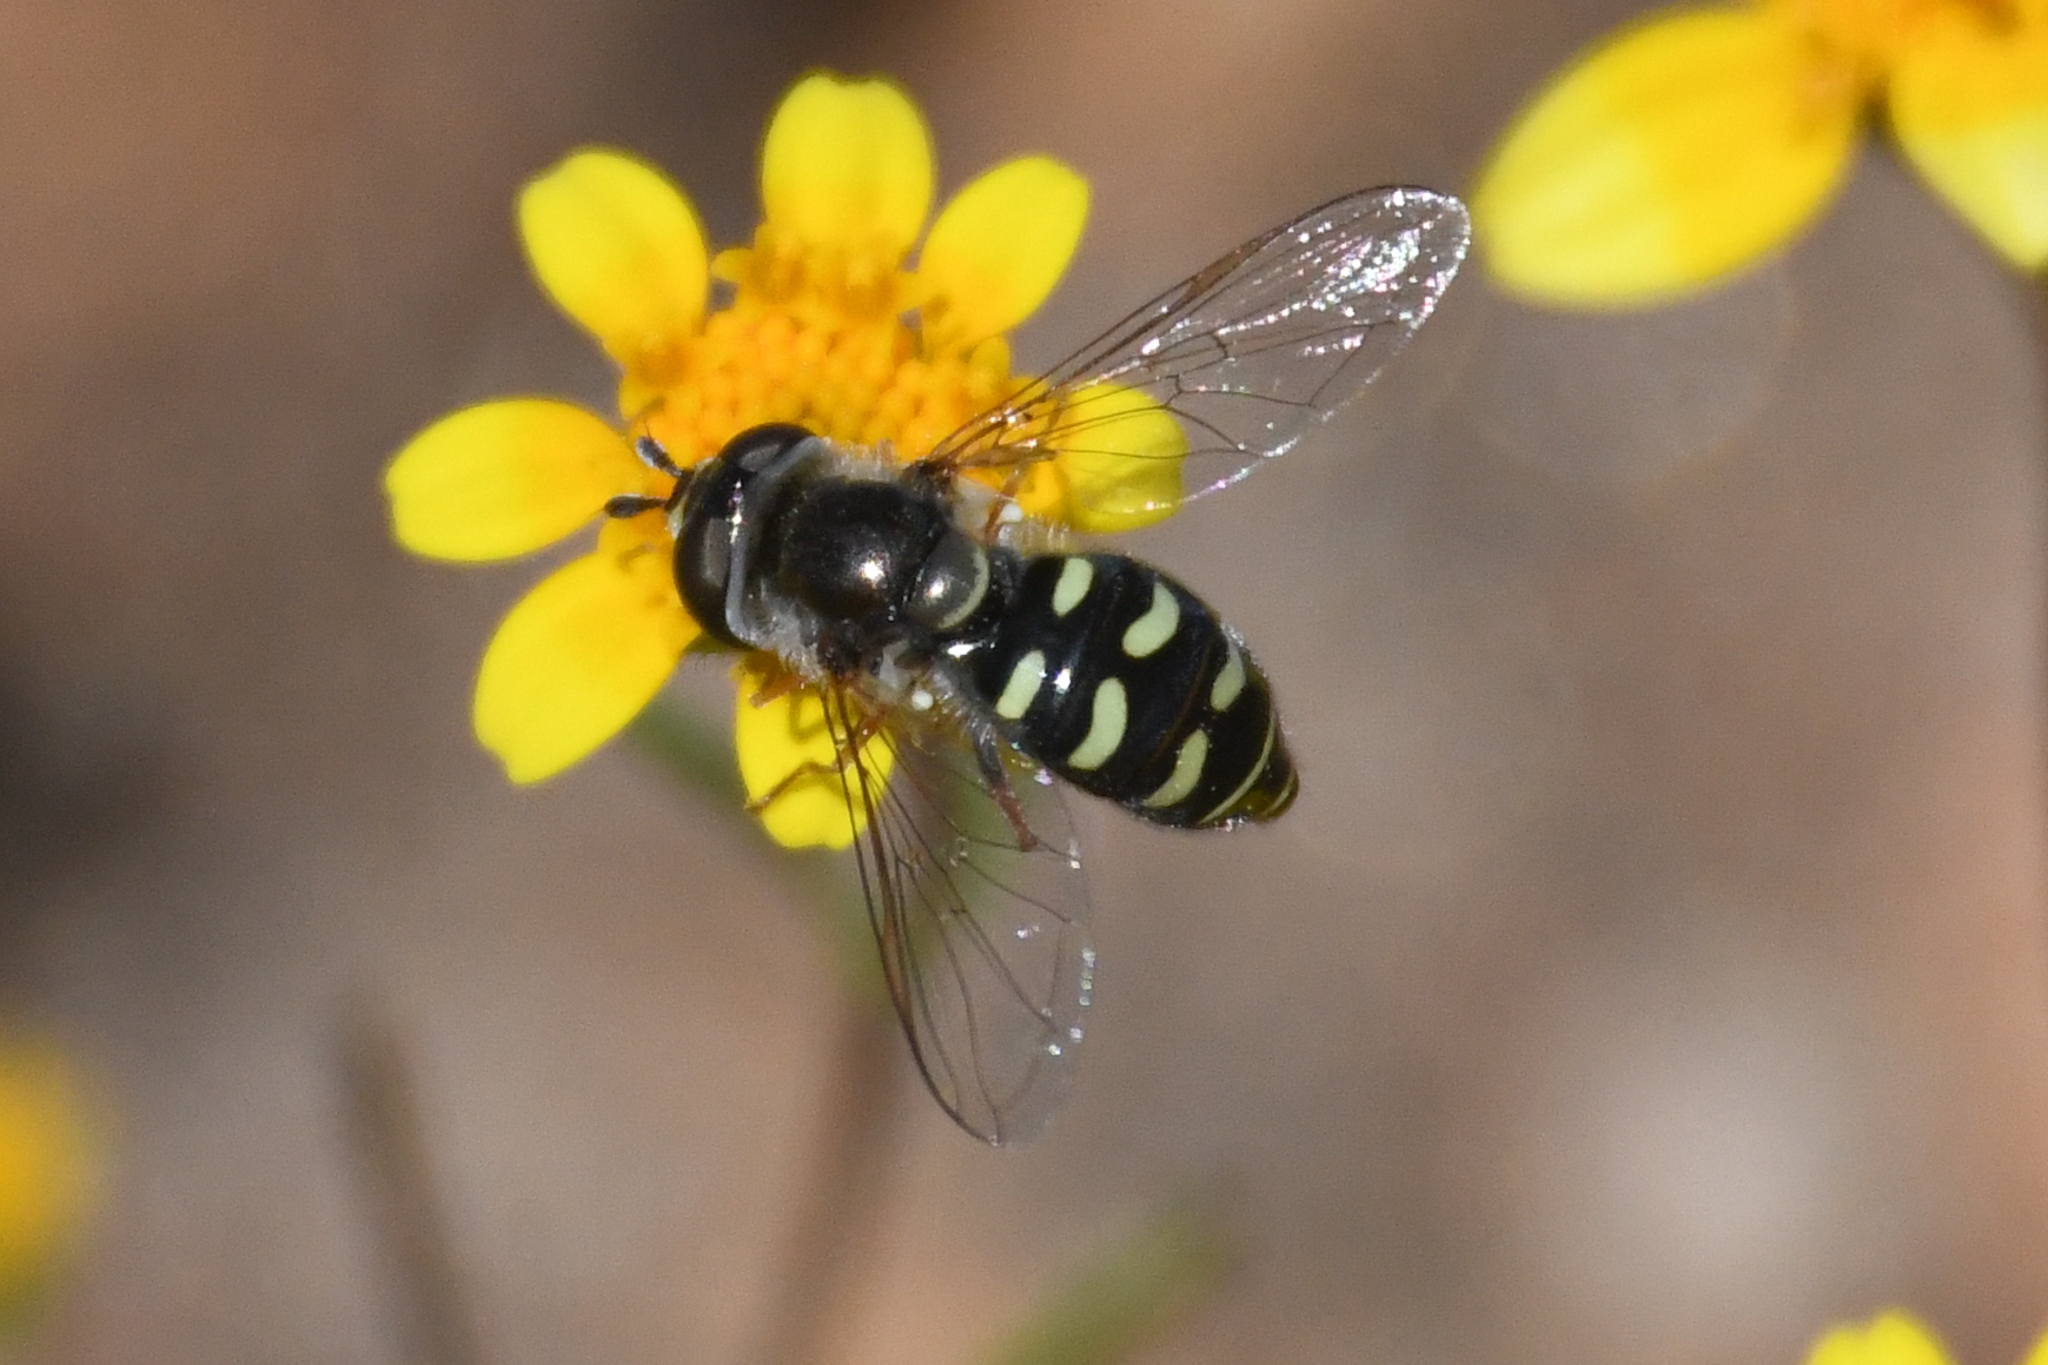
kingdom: Animalia
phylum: Arthropoda
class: Insecta
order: Diptera
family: Syrphidae
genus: Eupeodes
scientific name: Eupeodes volucris
